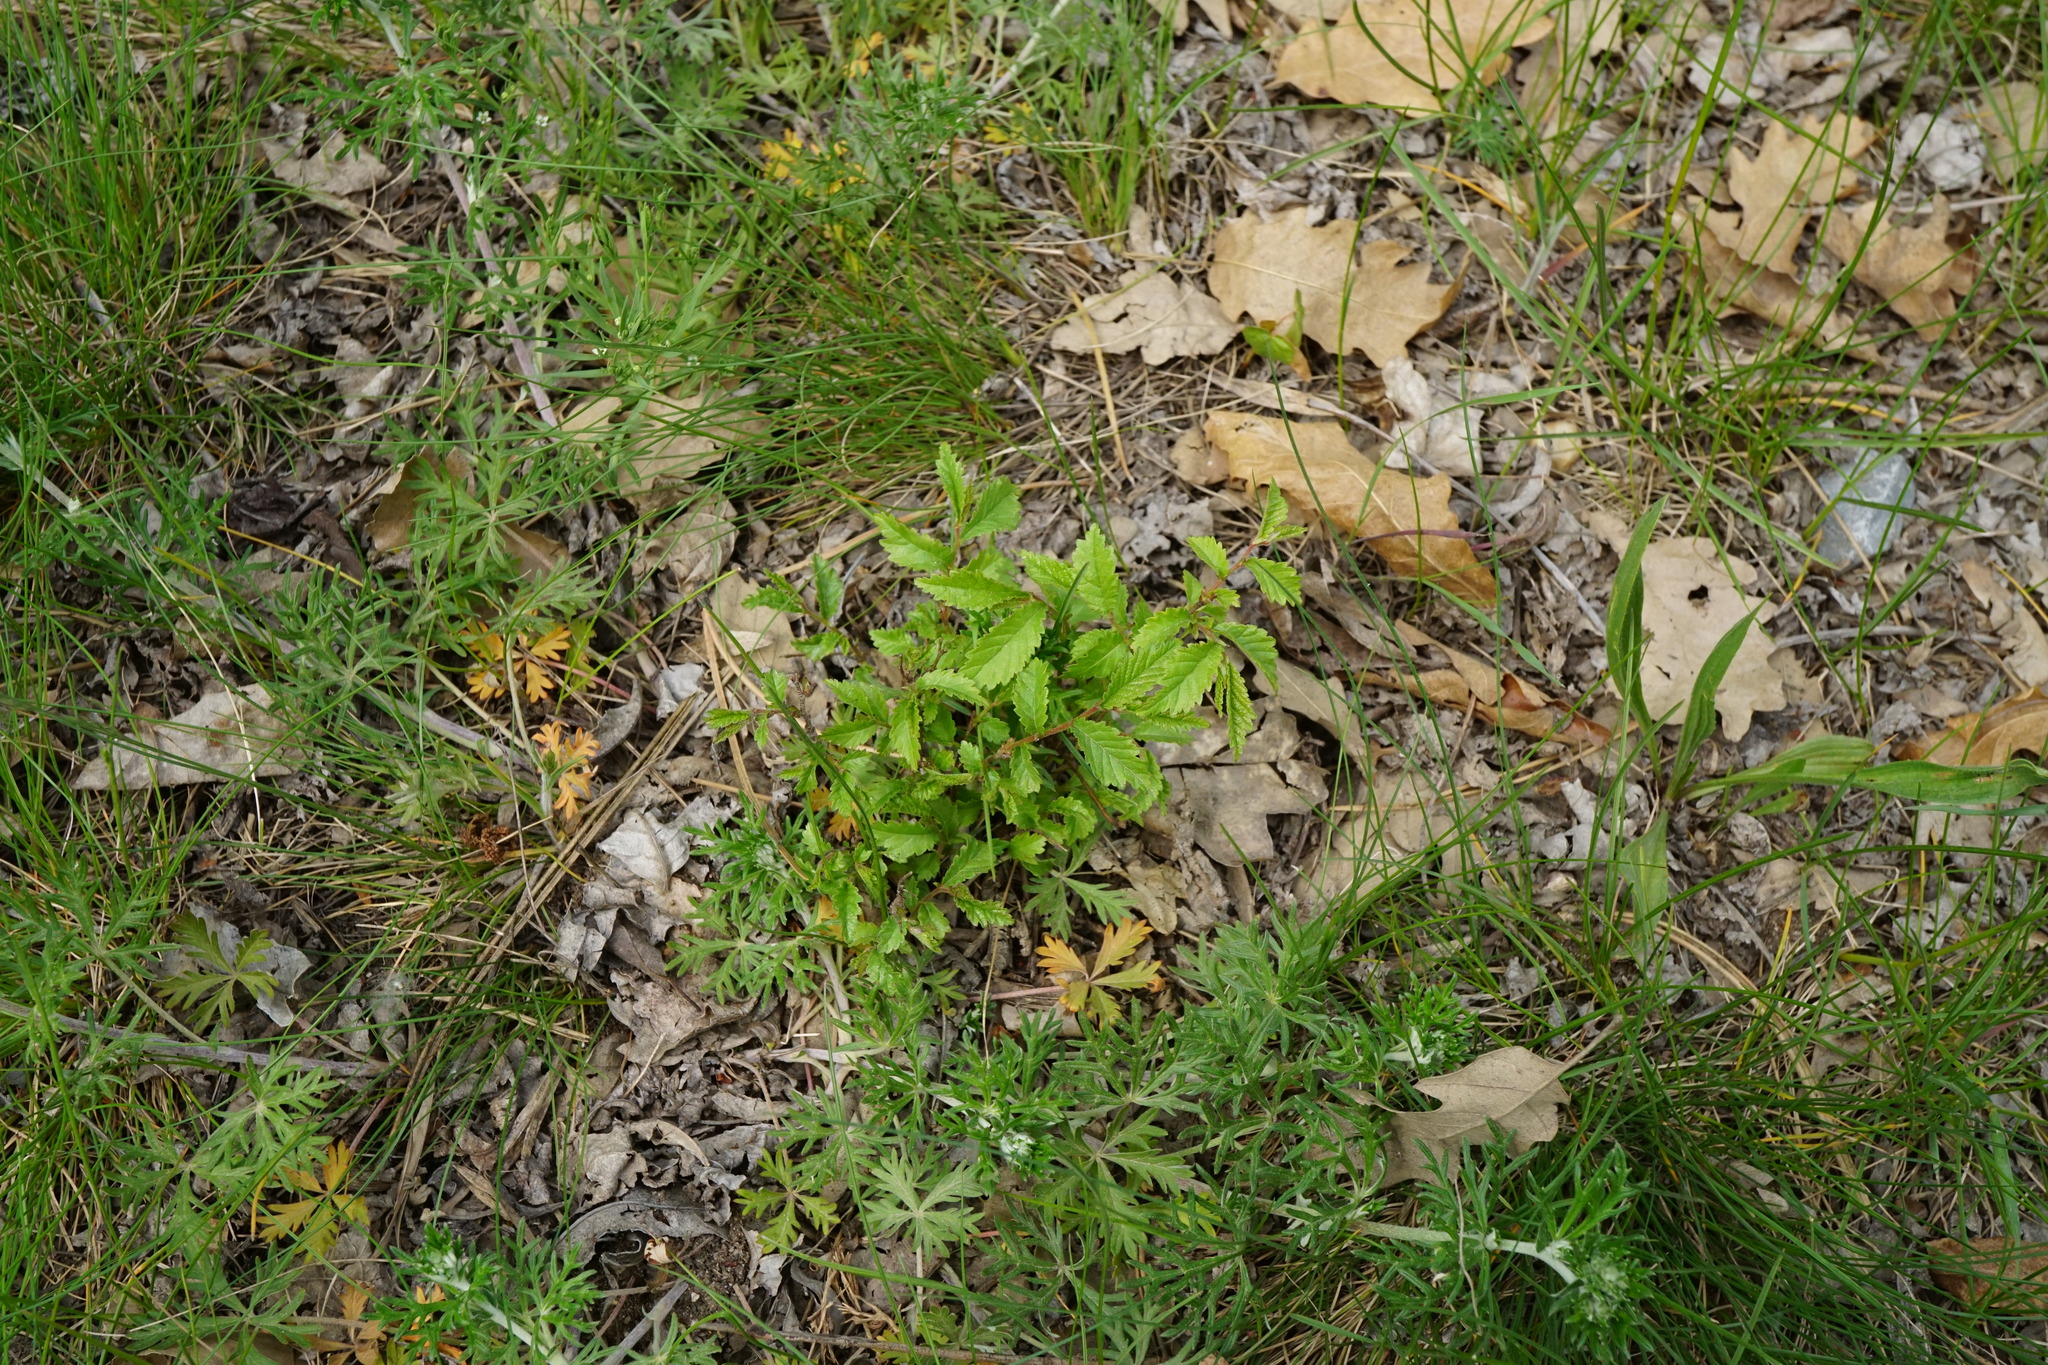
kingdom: Plantae
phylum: Tracheophyta
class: Magnoliopsida
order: Rosales
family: Ulmaceae
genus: Ulmus
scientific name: Ulmus minor
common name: Small-leaved elm
